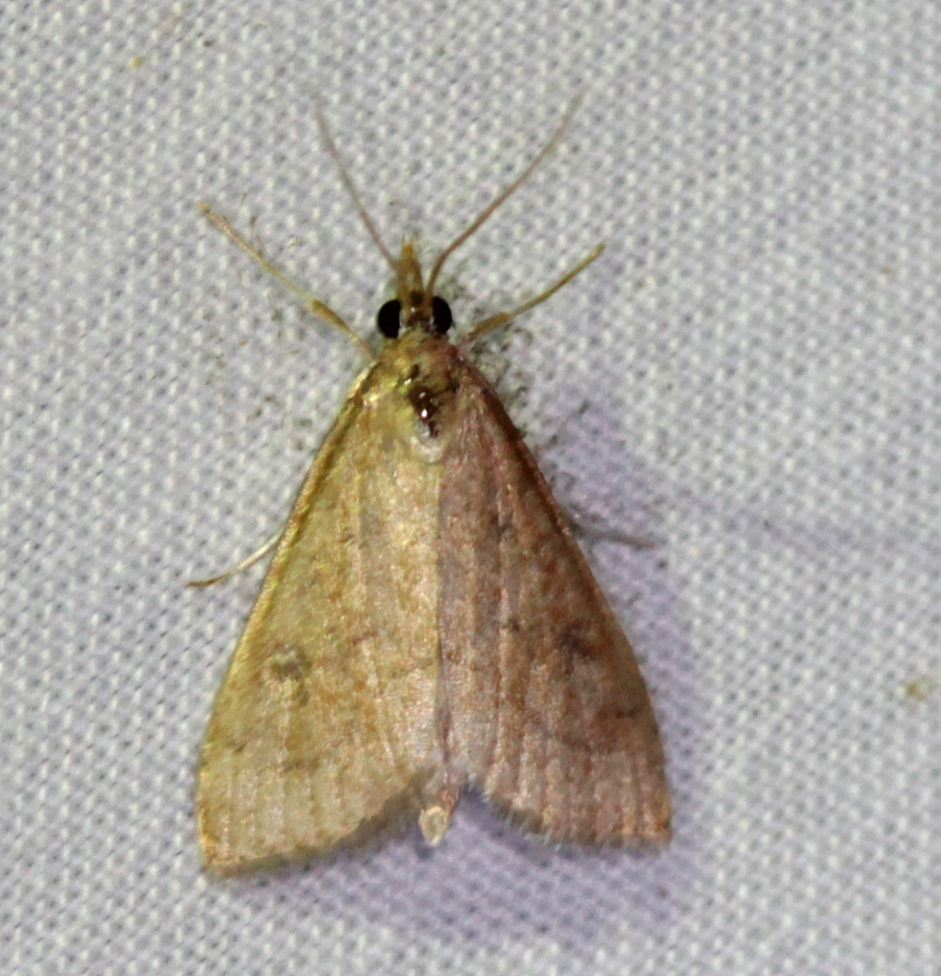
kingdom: Animalia
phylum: Arthropoda
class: Insecta
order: Lepidoptera
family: Crambidae
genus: Udea
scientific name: Udea rubigalis
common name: Celery leaftier moth
